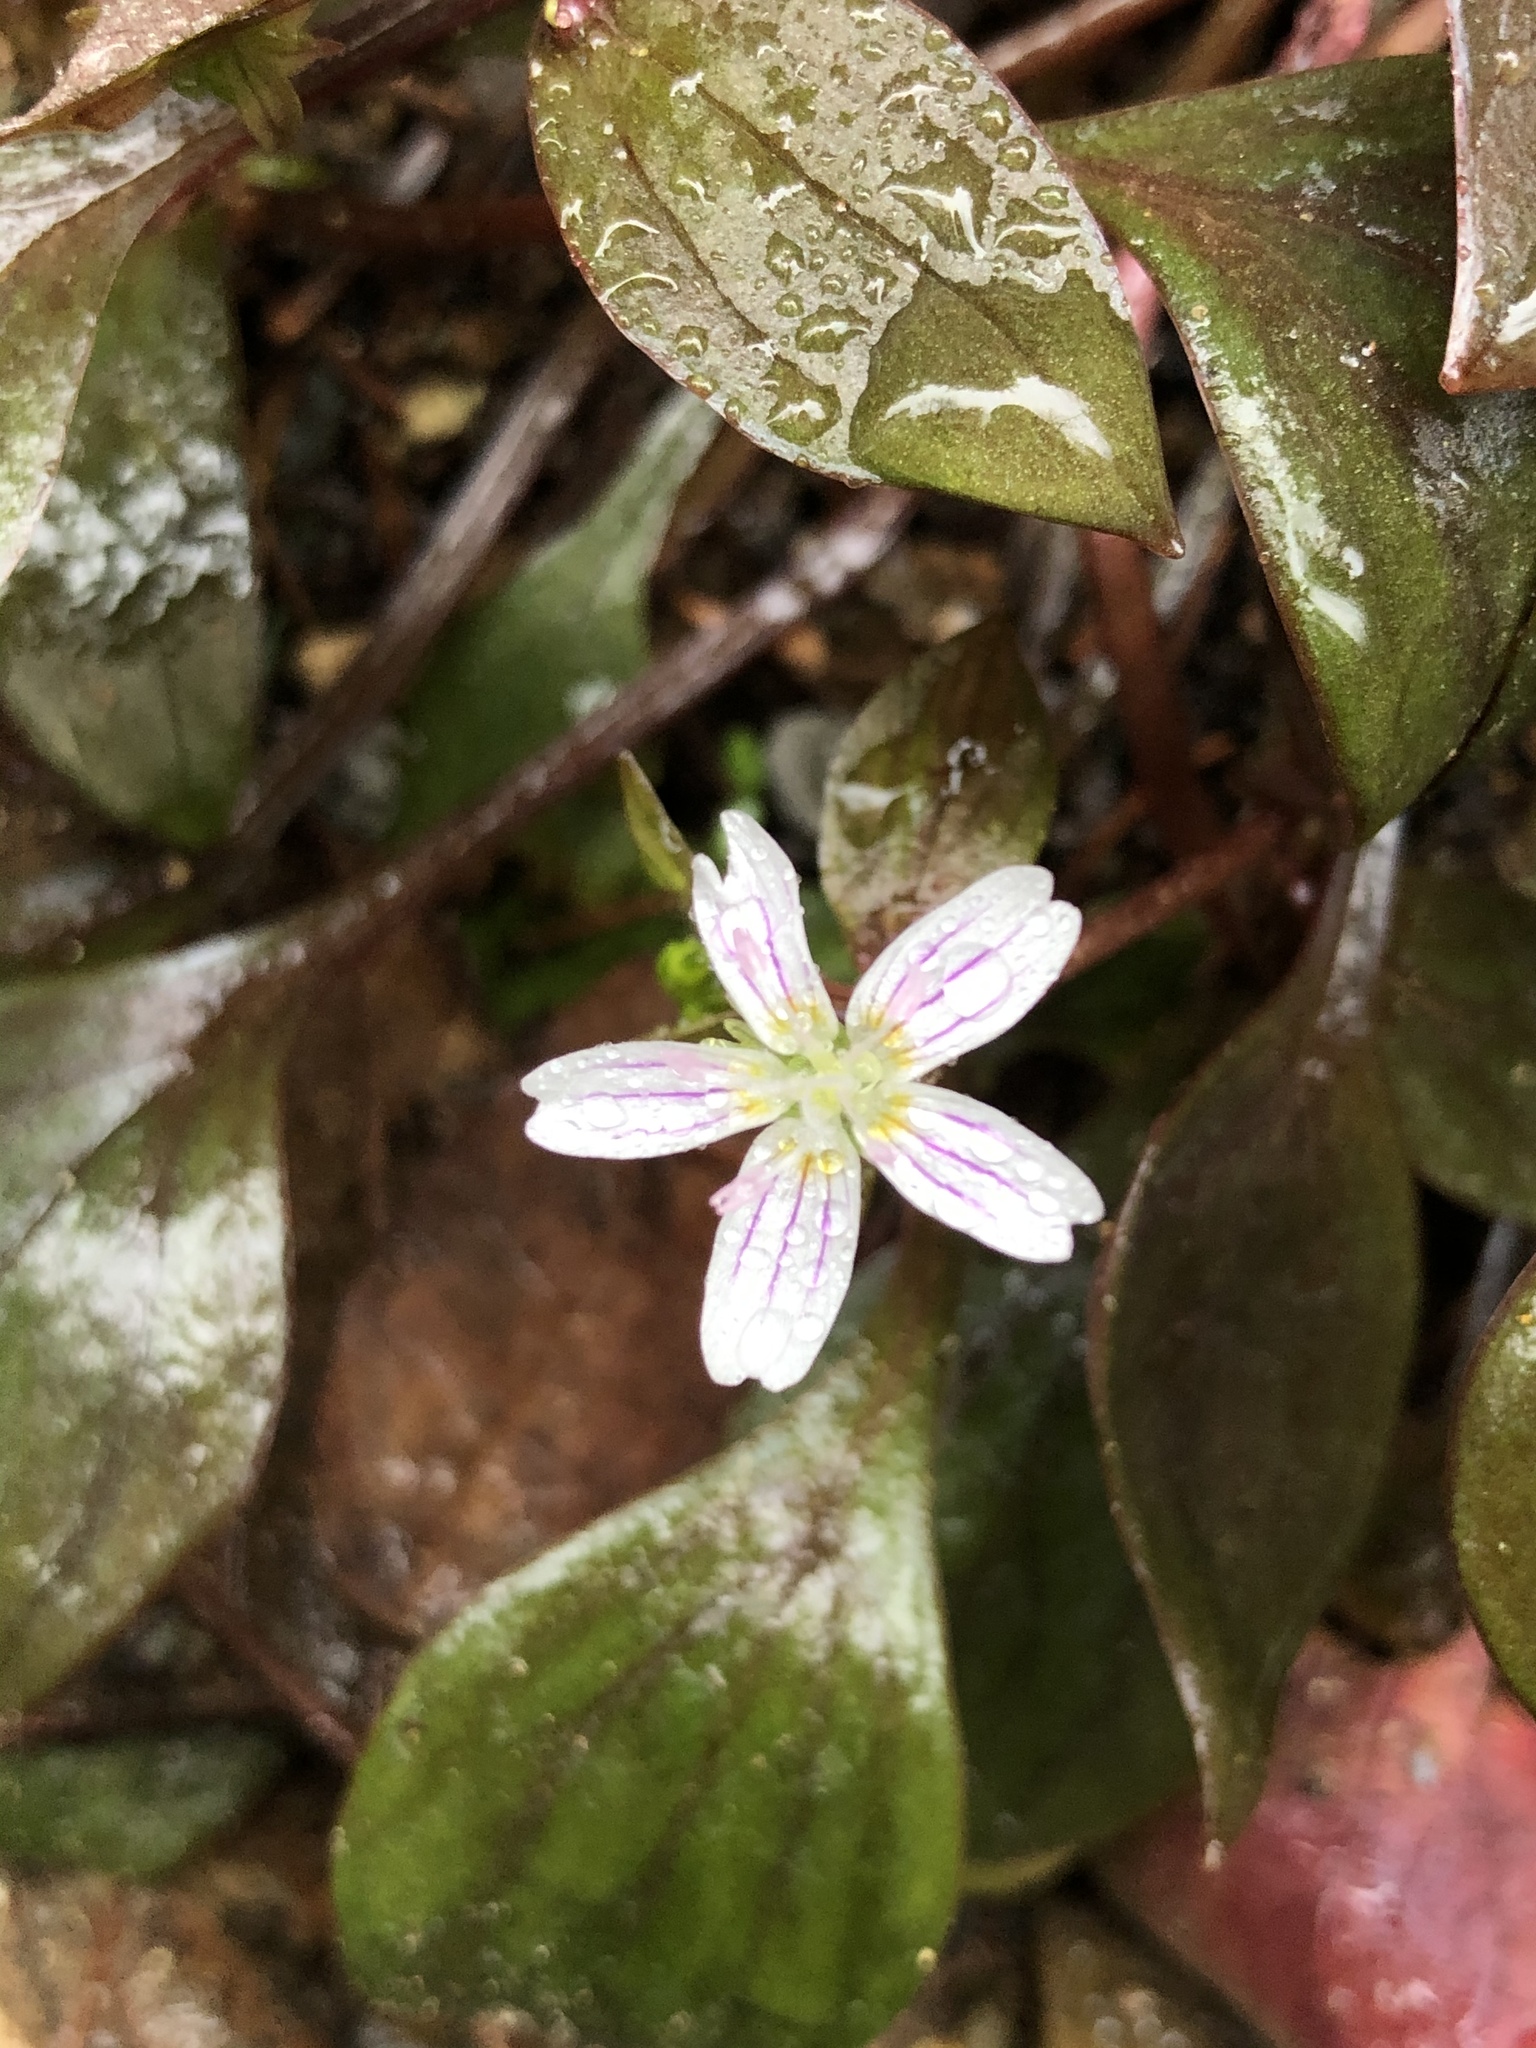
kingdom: Plantae
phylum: Tracheophyta
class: Magnoliopsida
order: Caryophyllales
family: Montiaceae
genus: Claytonia
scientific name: Claytonia sibirica
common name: Pink purslane
